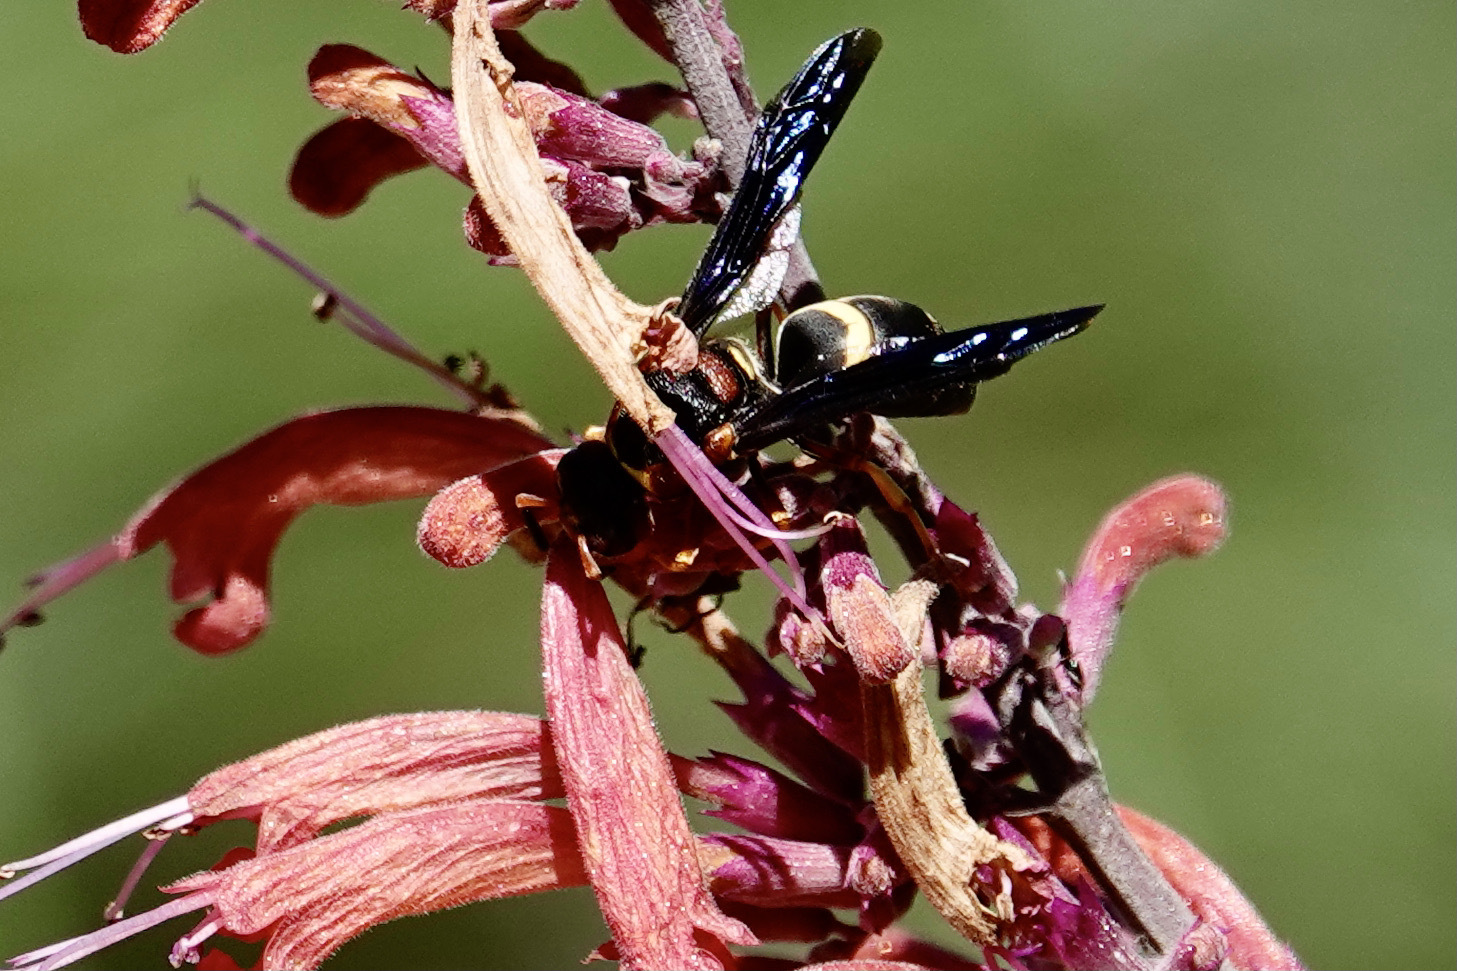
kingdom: Animalia
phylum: Arthropoda
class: Insecta
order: Hymenoptera
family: Eumenidae
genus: Euodynerus
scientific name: Euodynerus crypticus
